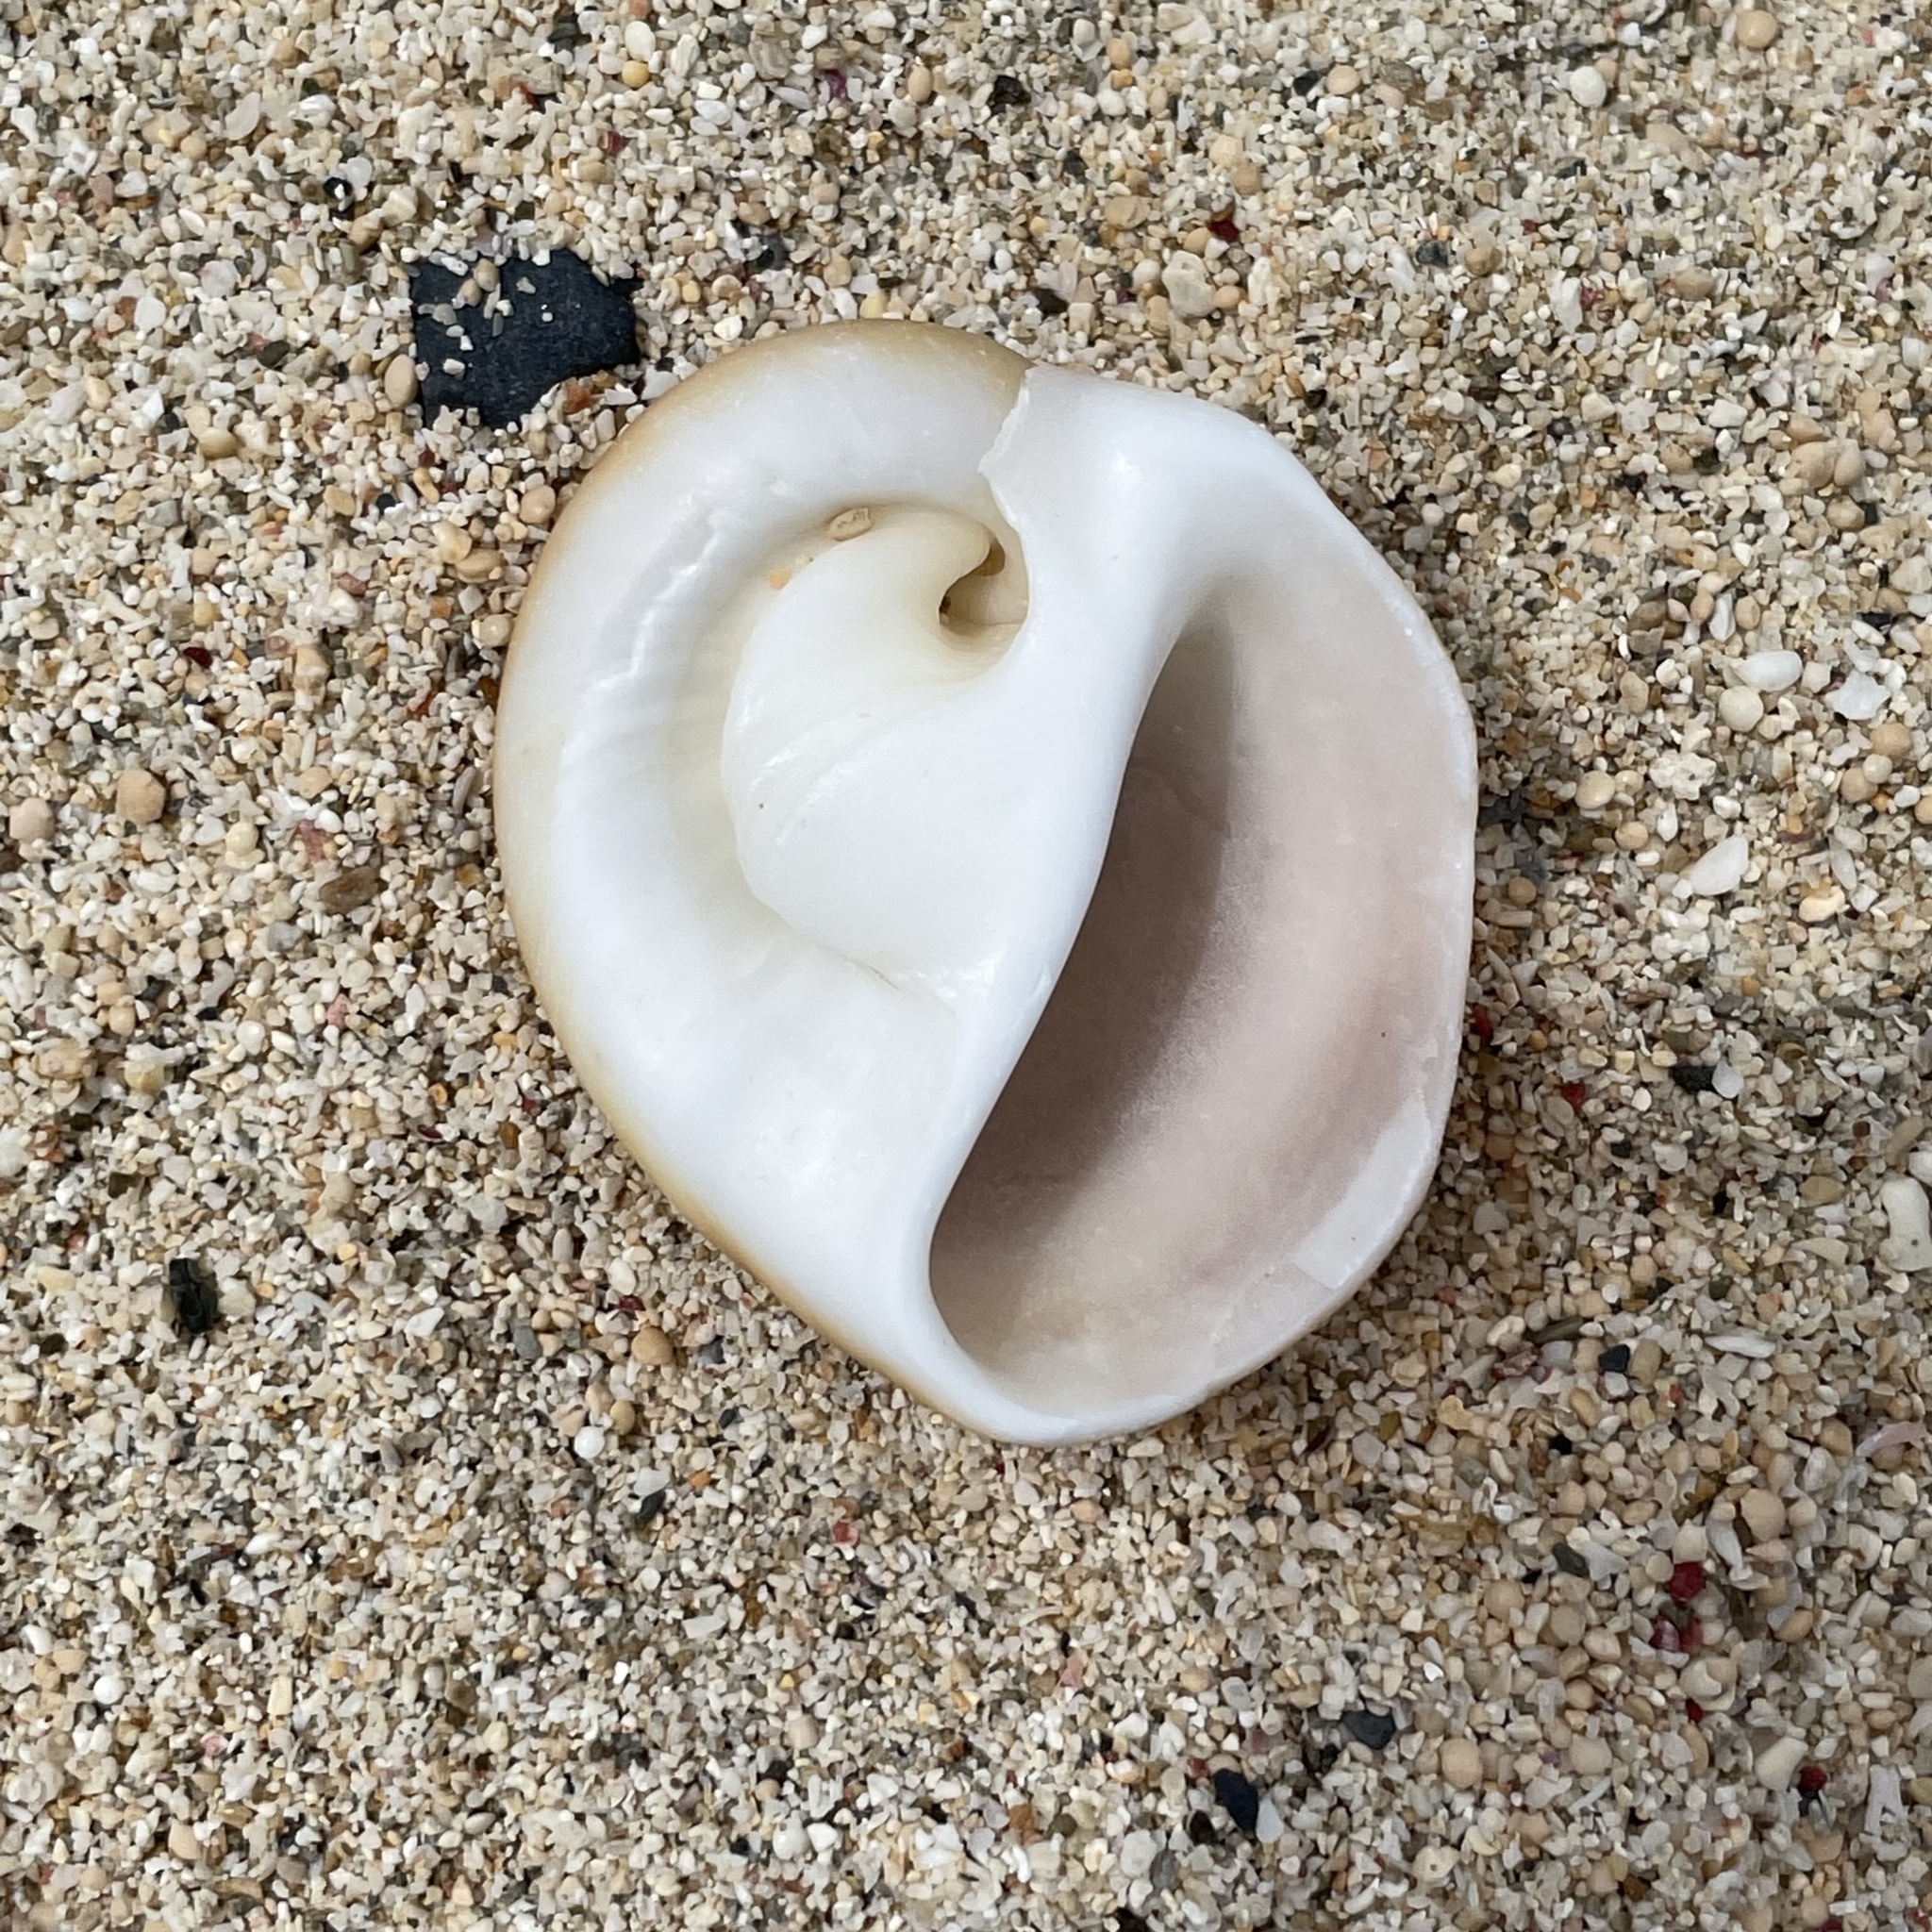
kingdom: Animalia
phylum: Mollusca
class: Gastropoda
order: Littorinimorpha
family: Naticidae
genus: Polinices
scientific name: Polinices albumen
